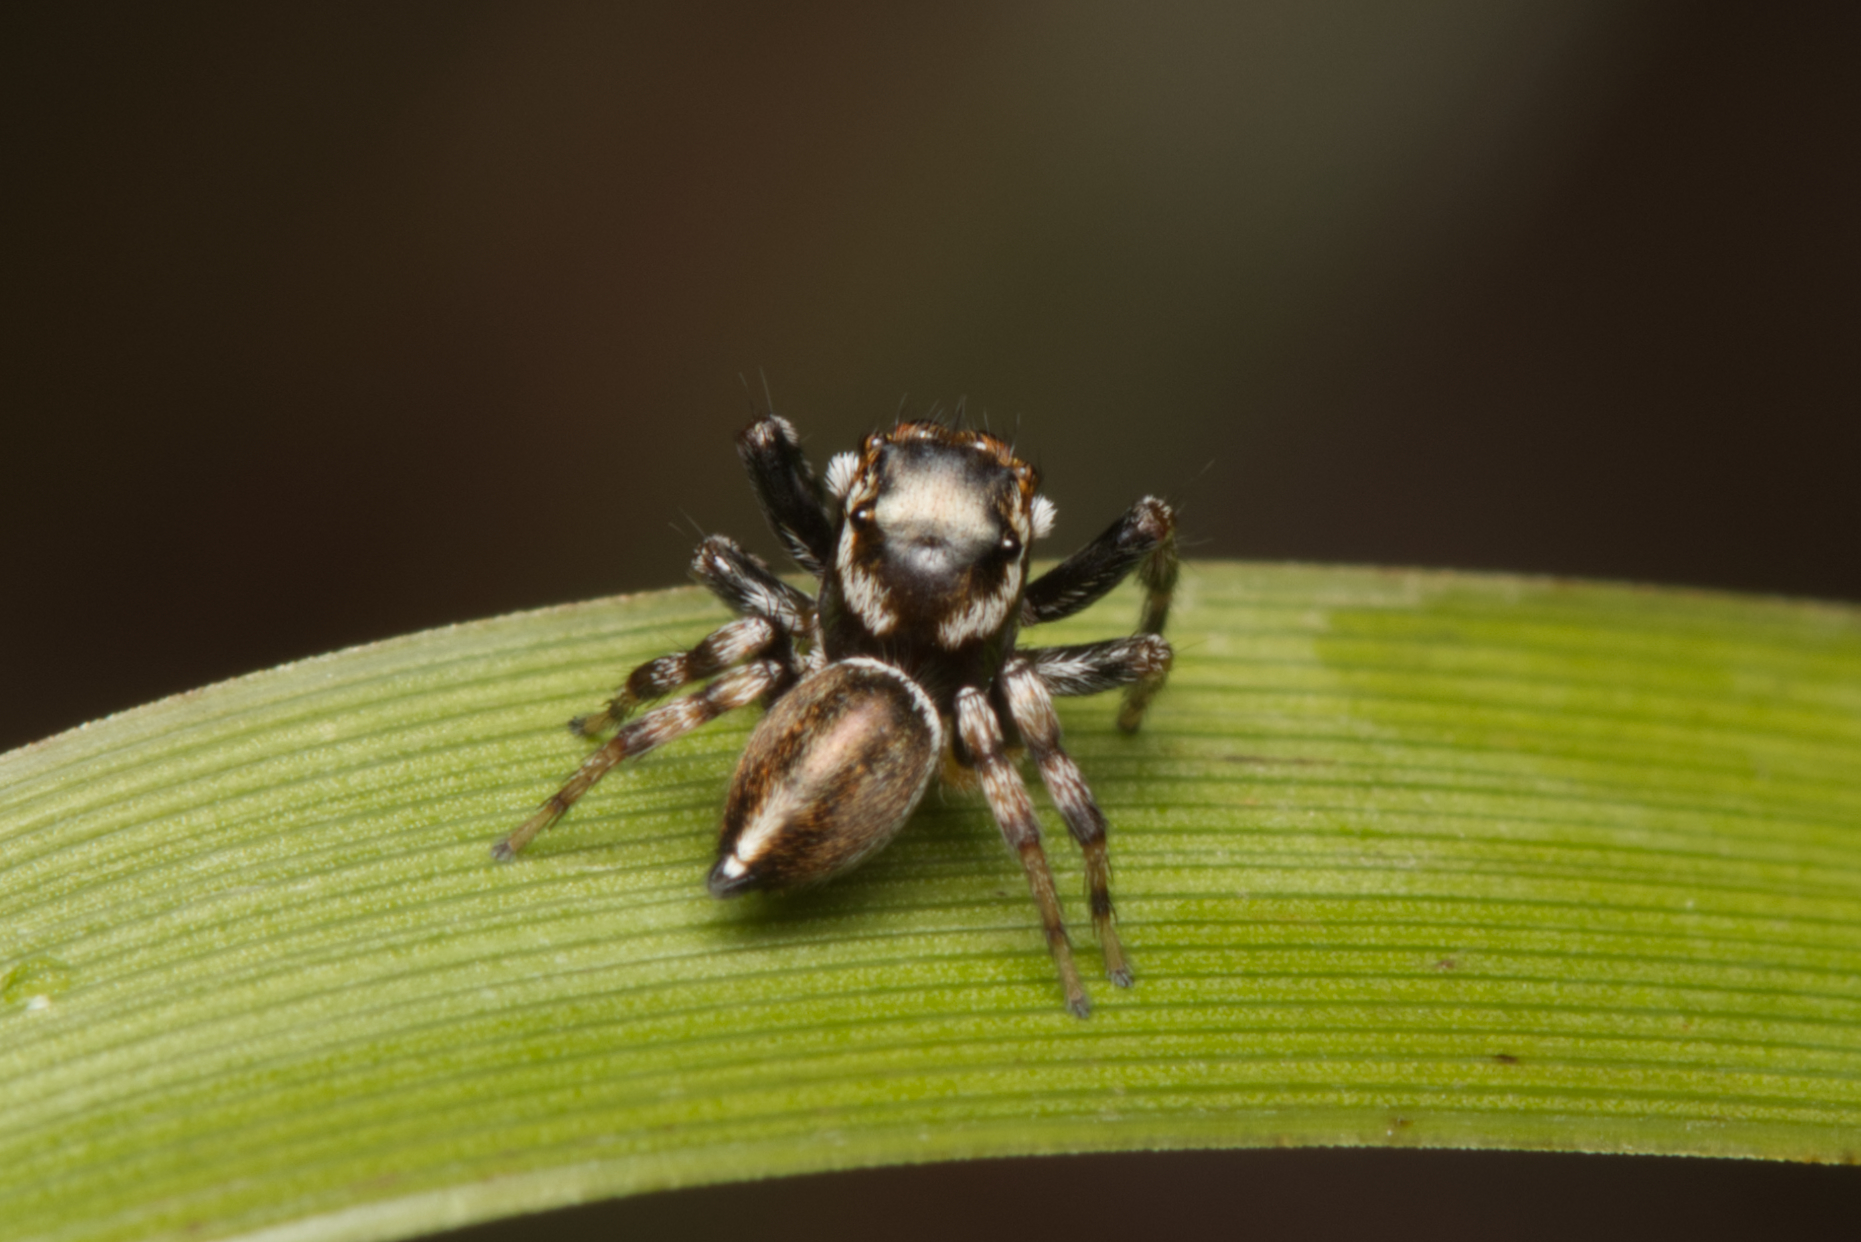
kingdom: Animalia
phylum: Arthropoda
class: Arachnida
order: Araneae
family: Salticidae
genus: Maratus
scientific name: Maratus scutulatus
